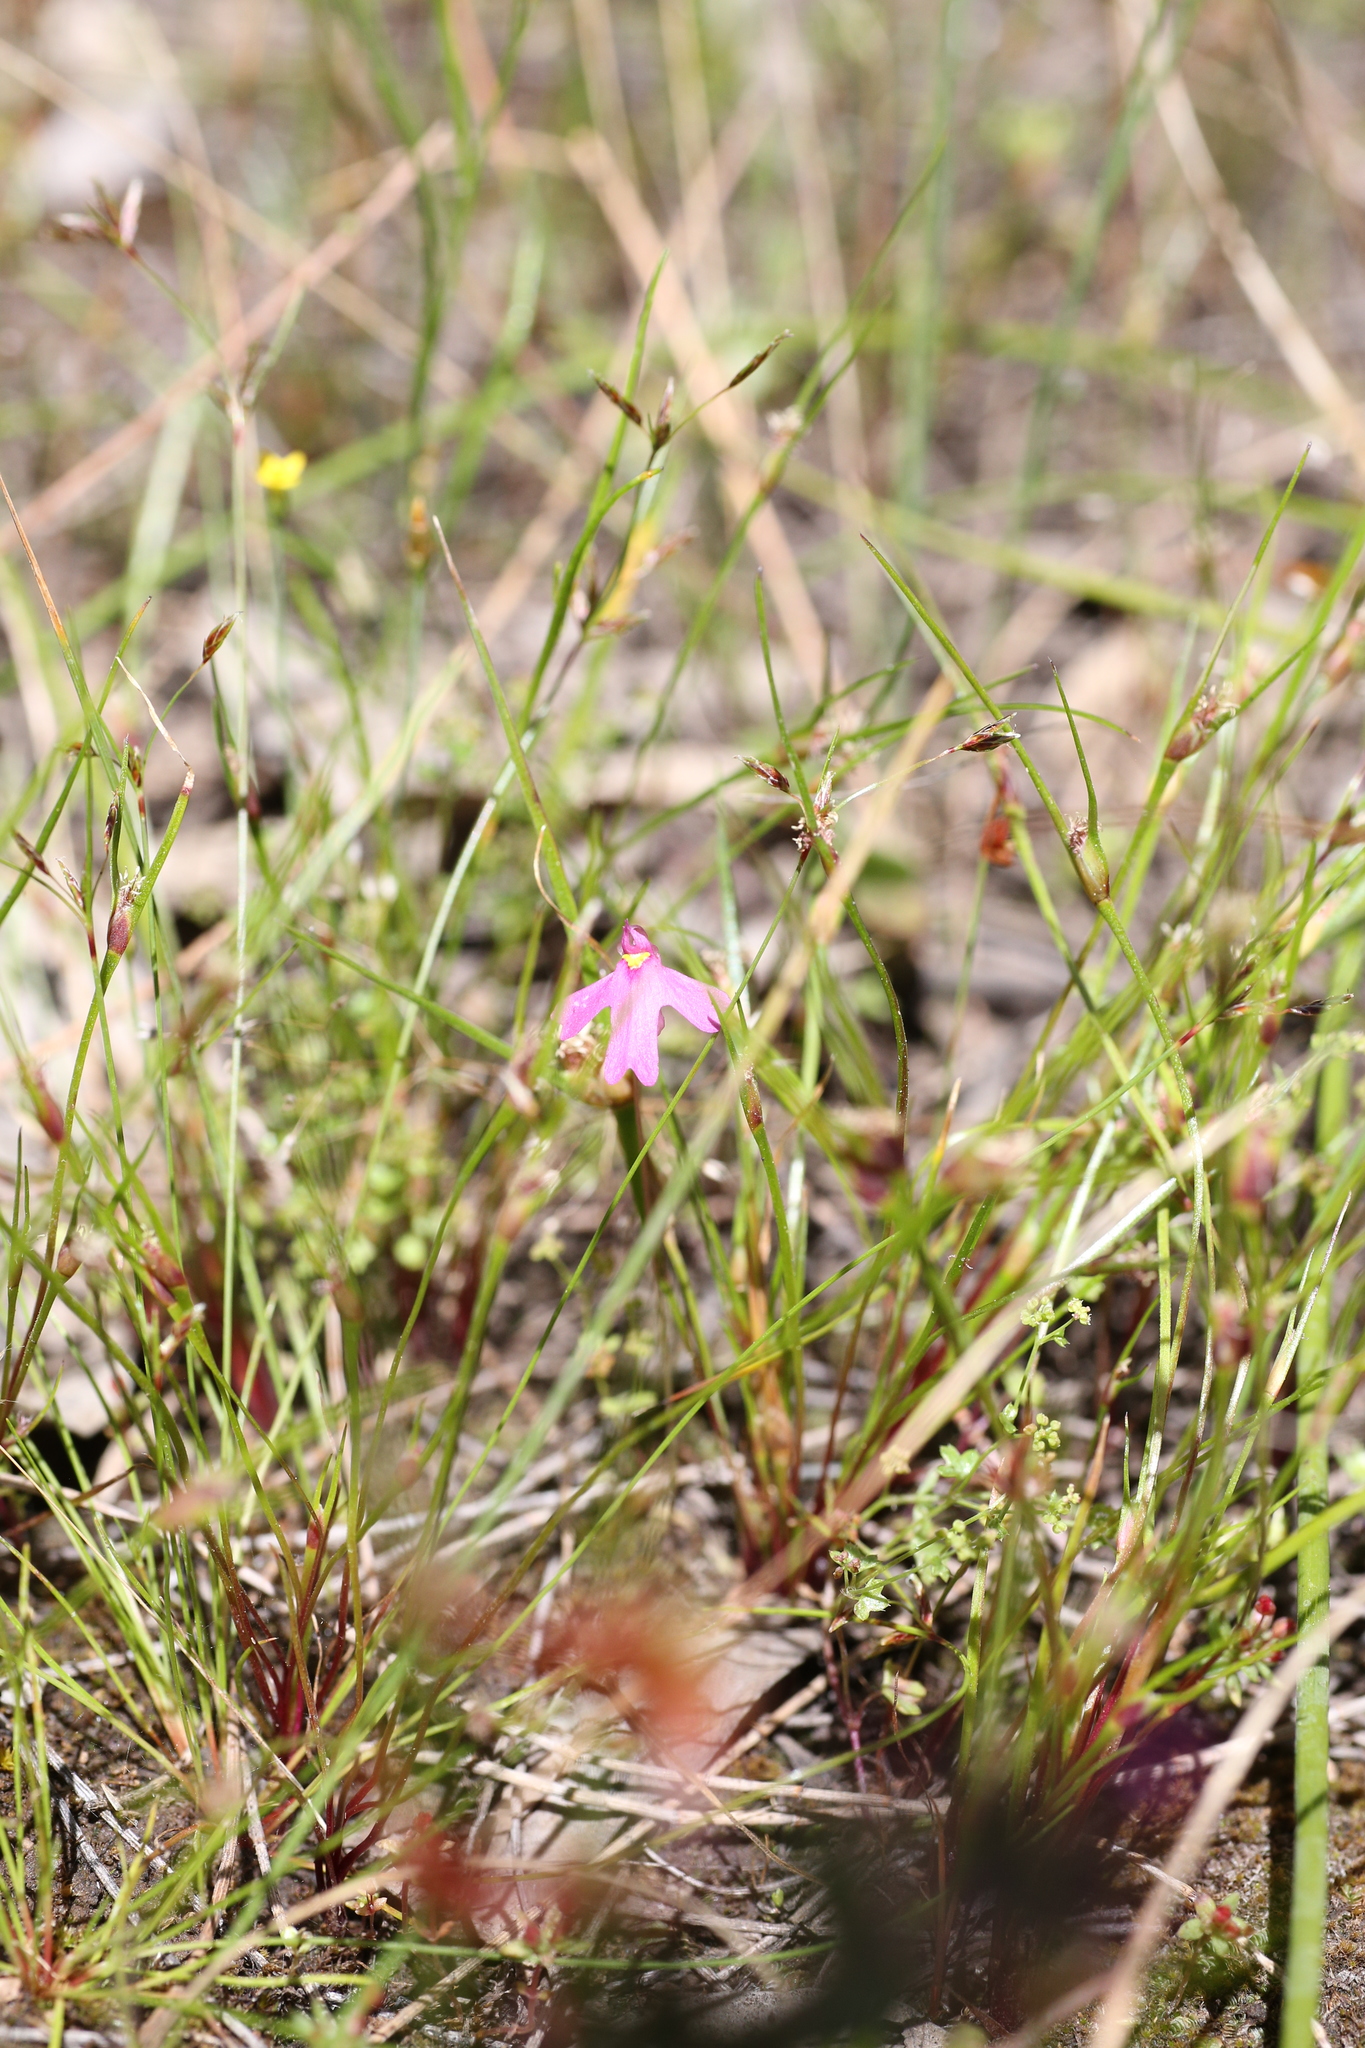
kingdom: Plantae
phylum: Tracheophyta
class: Magnoliopsida
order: Lamiales
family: Lentibulariaceae
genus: Utricularia
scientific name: Utricularia multifida
